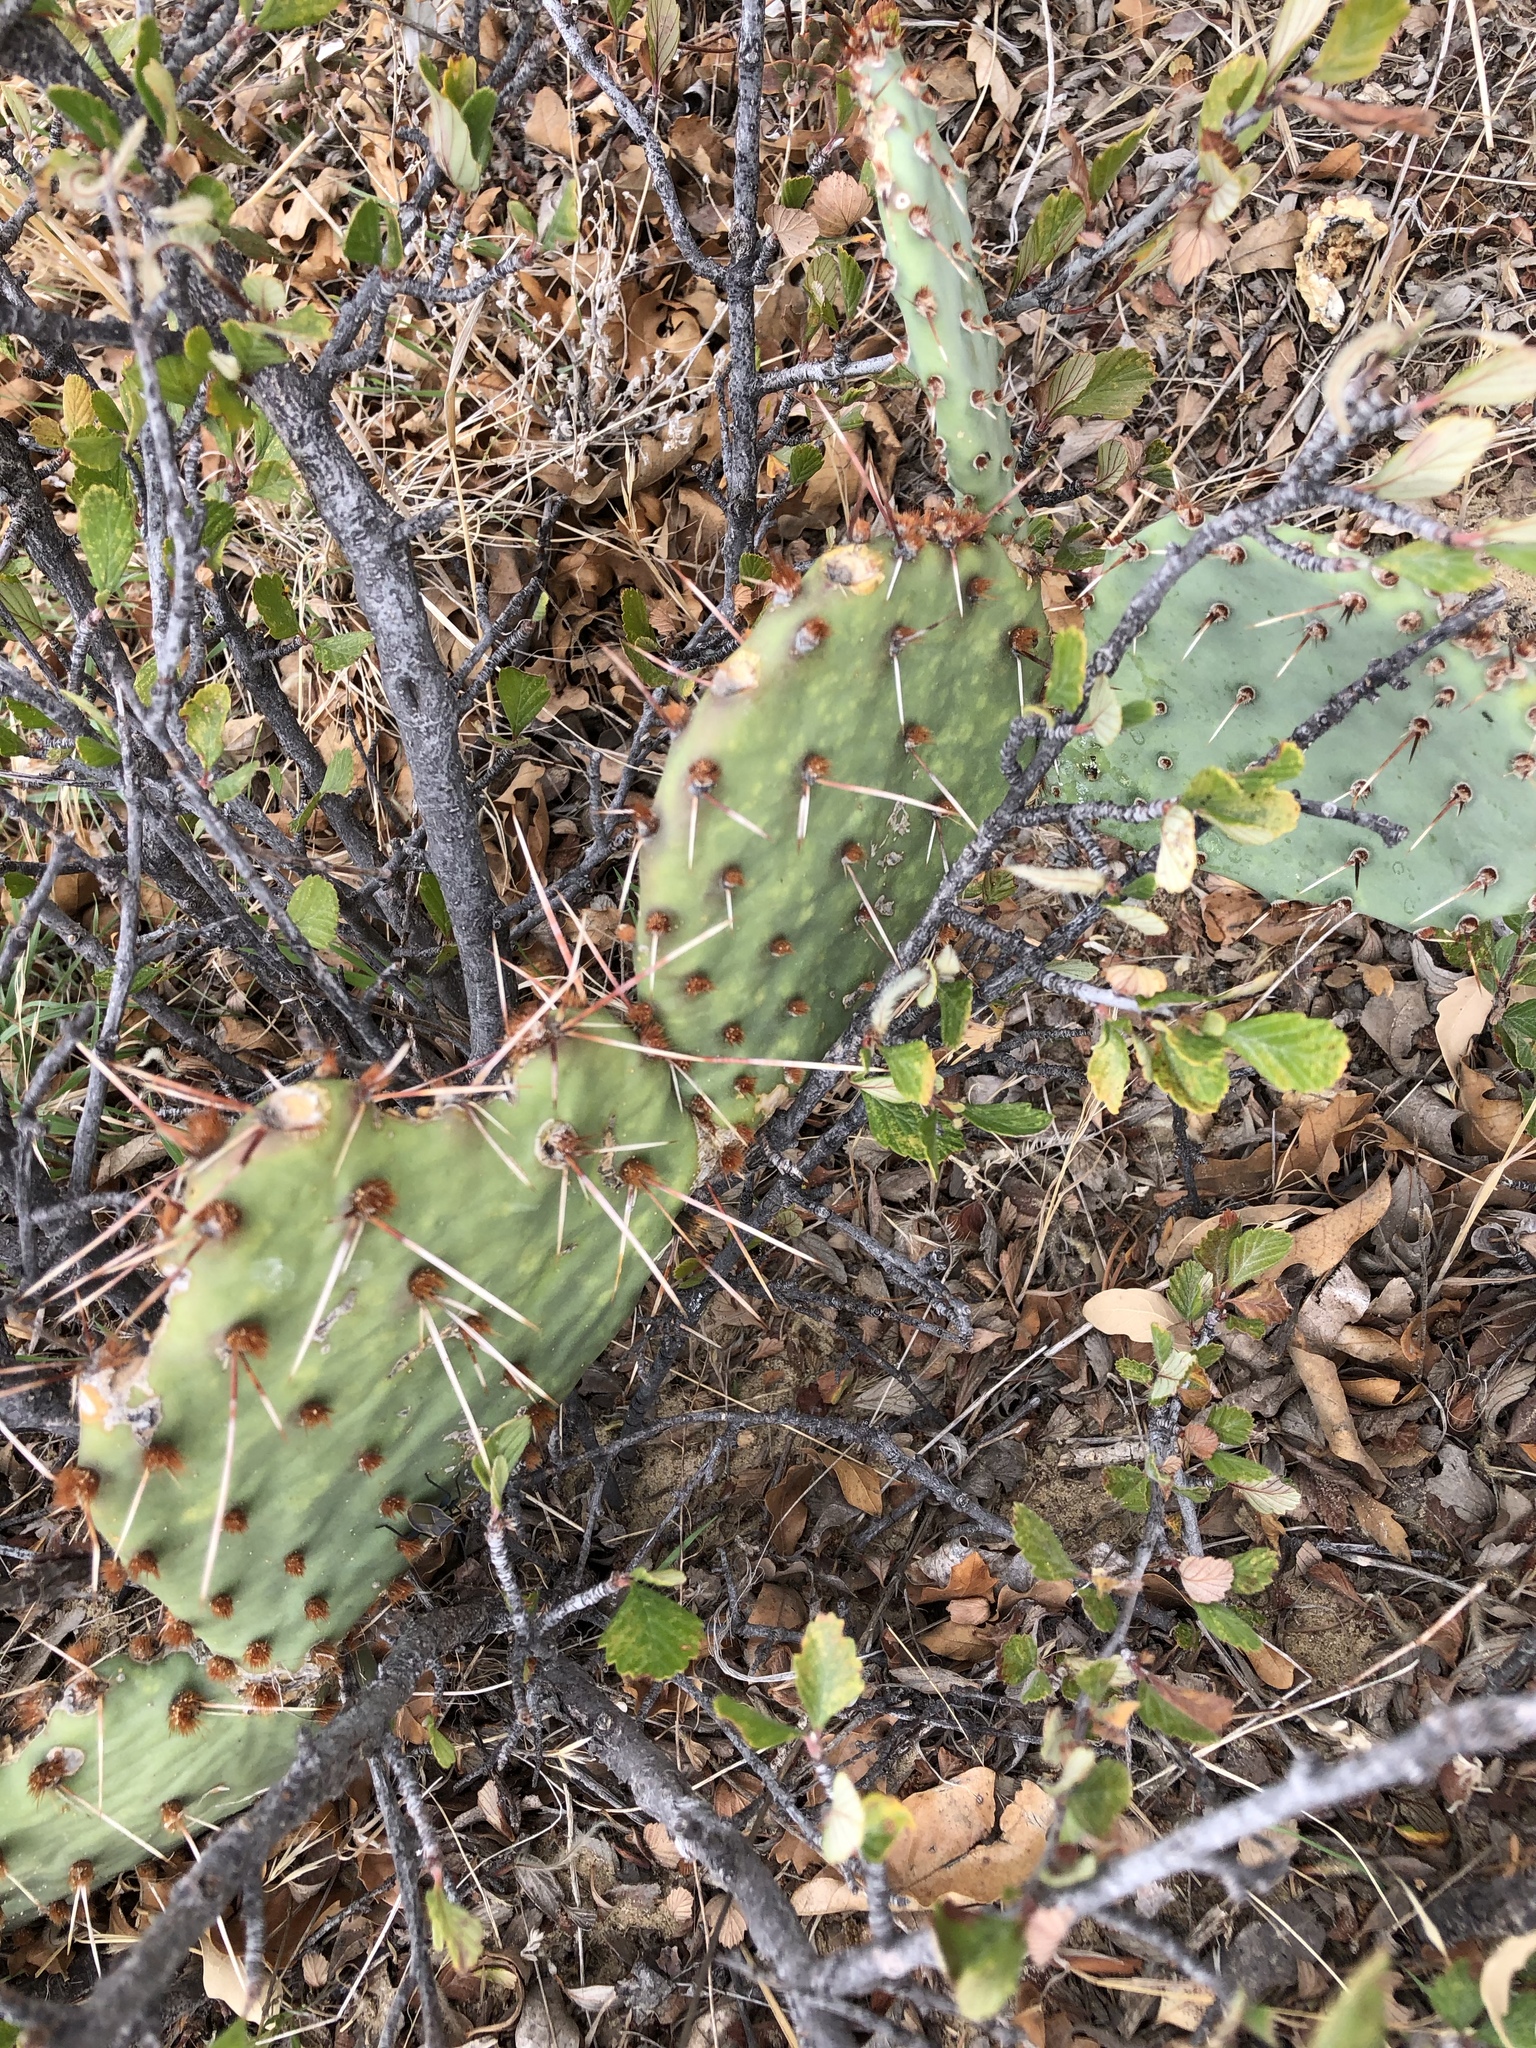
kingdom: Plantae
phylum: Tracheophyta
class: Magnoliopsida
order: Caryophyllales
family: Cactaceae
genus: Opuntia
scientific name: Opuntia phaeacantha
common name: New mexico prickly-pear
